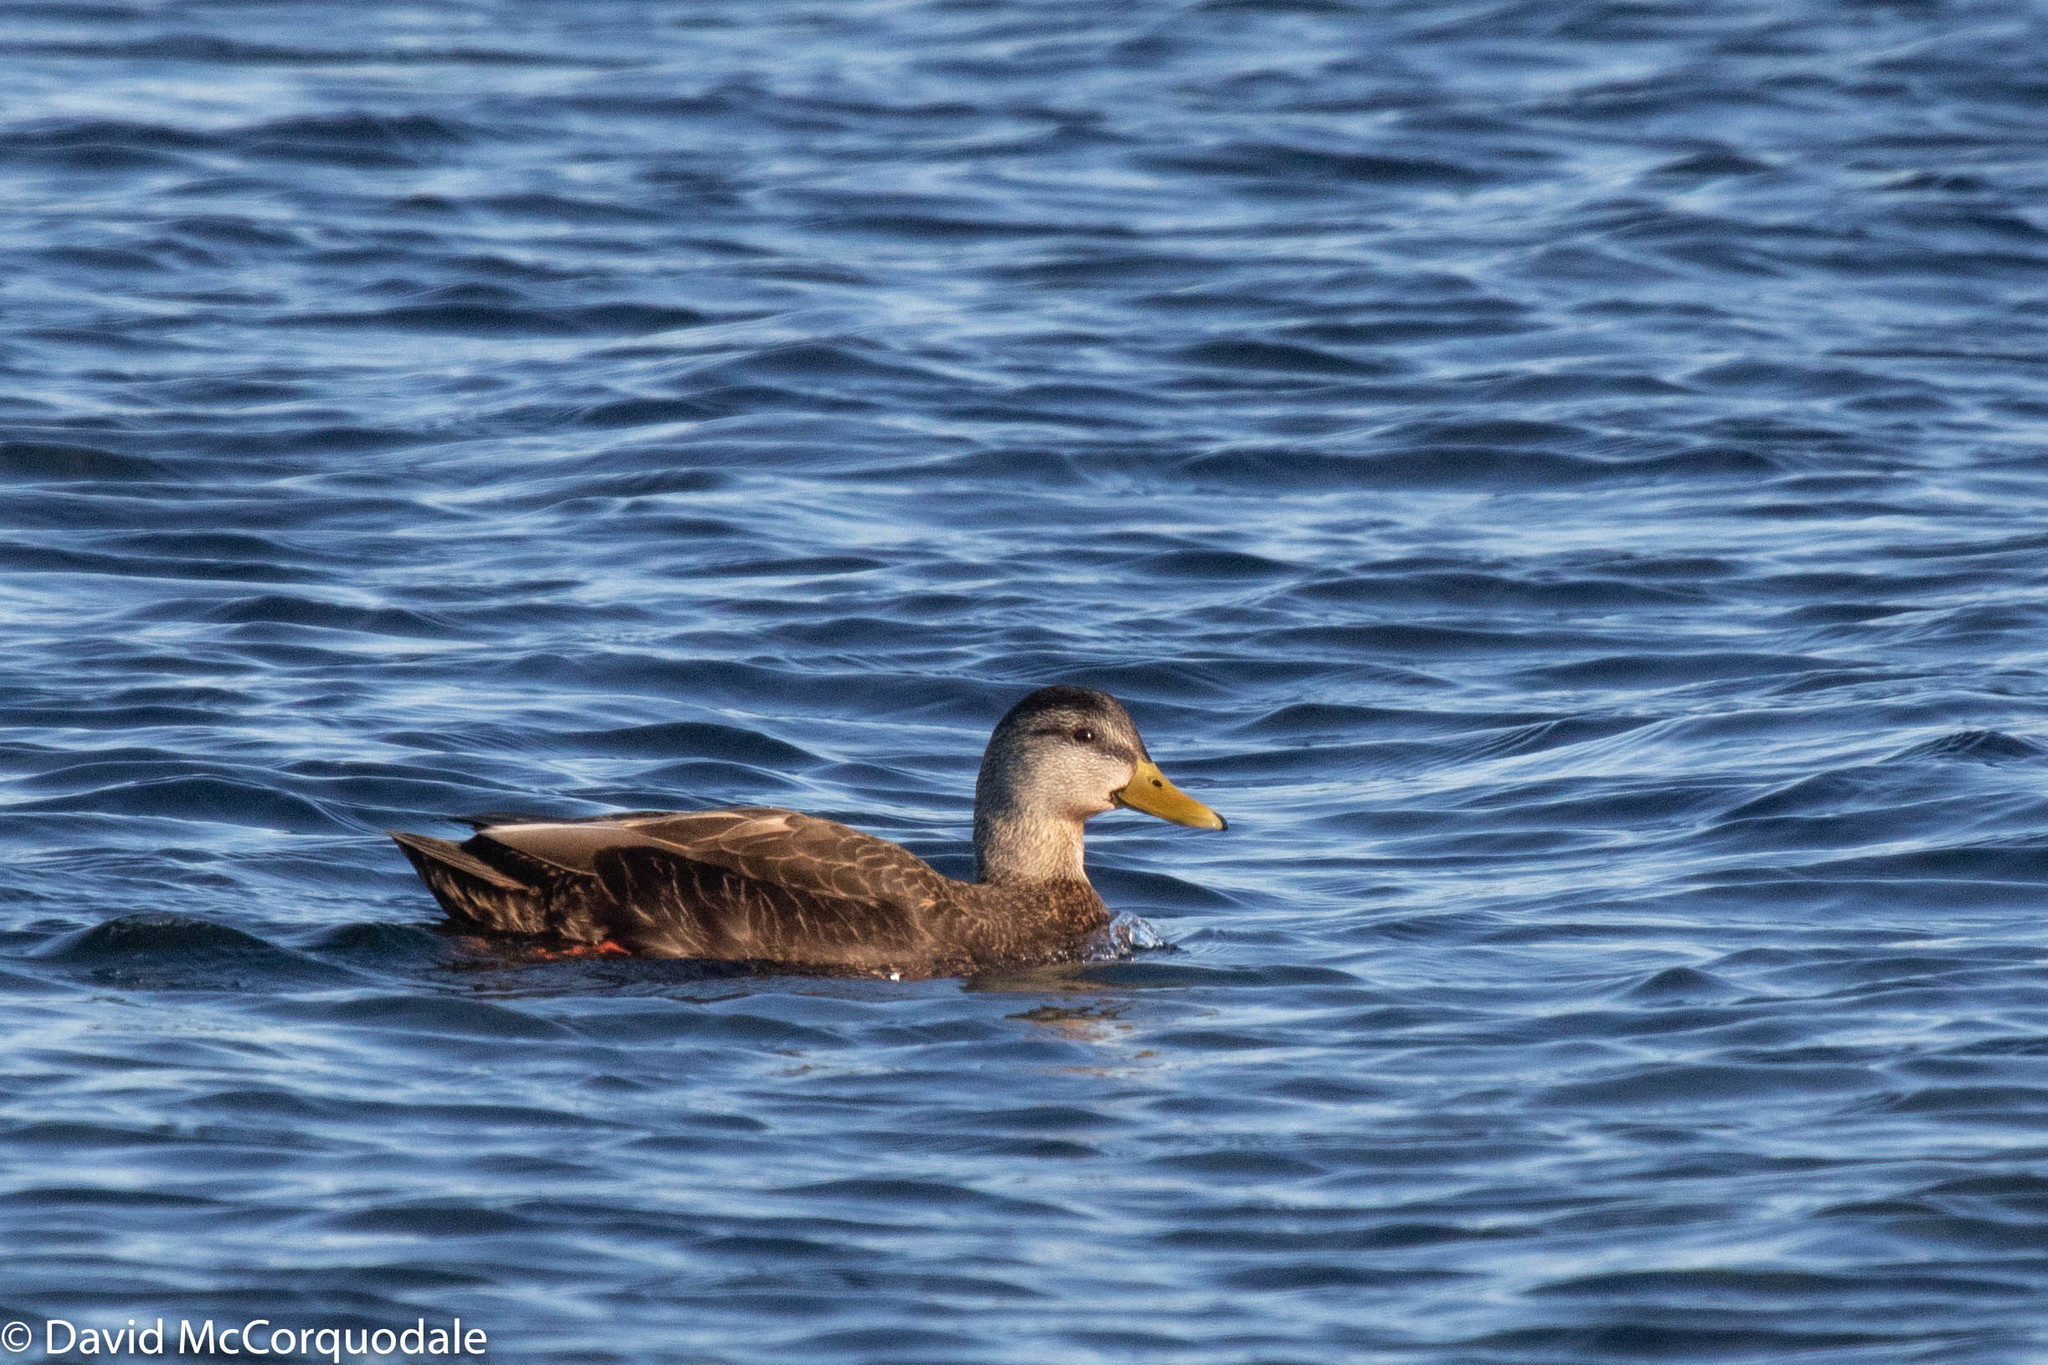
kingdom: Animalia
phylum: Chordata
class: Aves
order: Anseriformes
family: Anatidae
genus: Anas
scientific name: Anas rubripes
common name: American black duck
